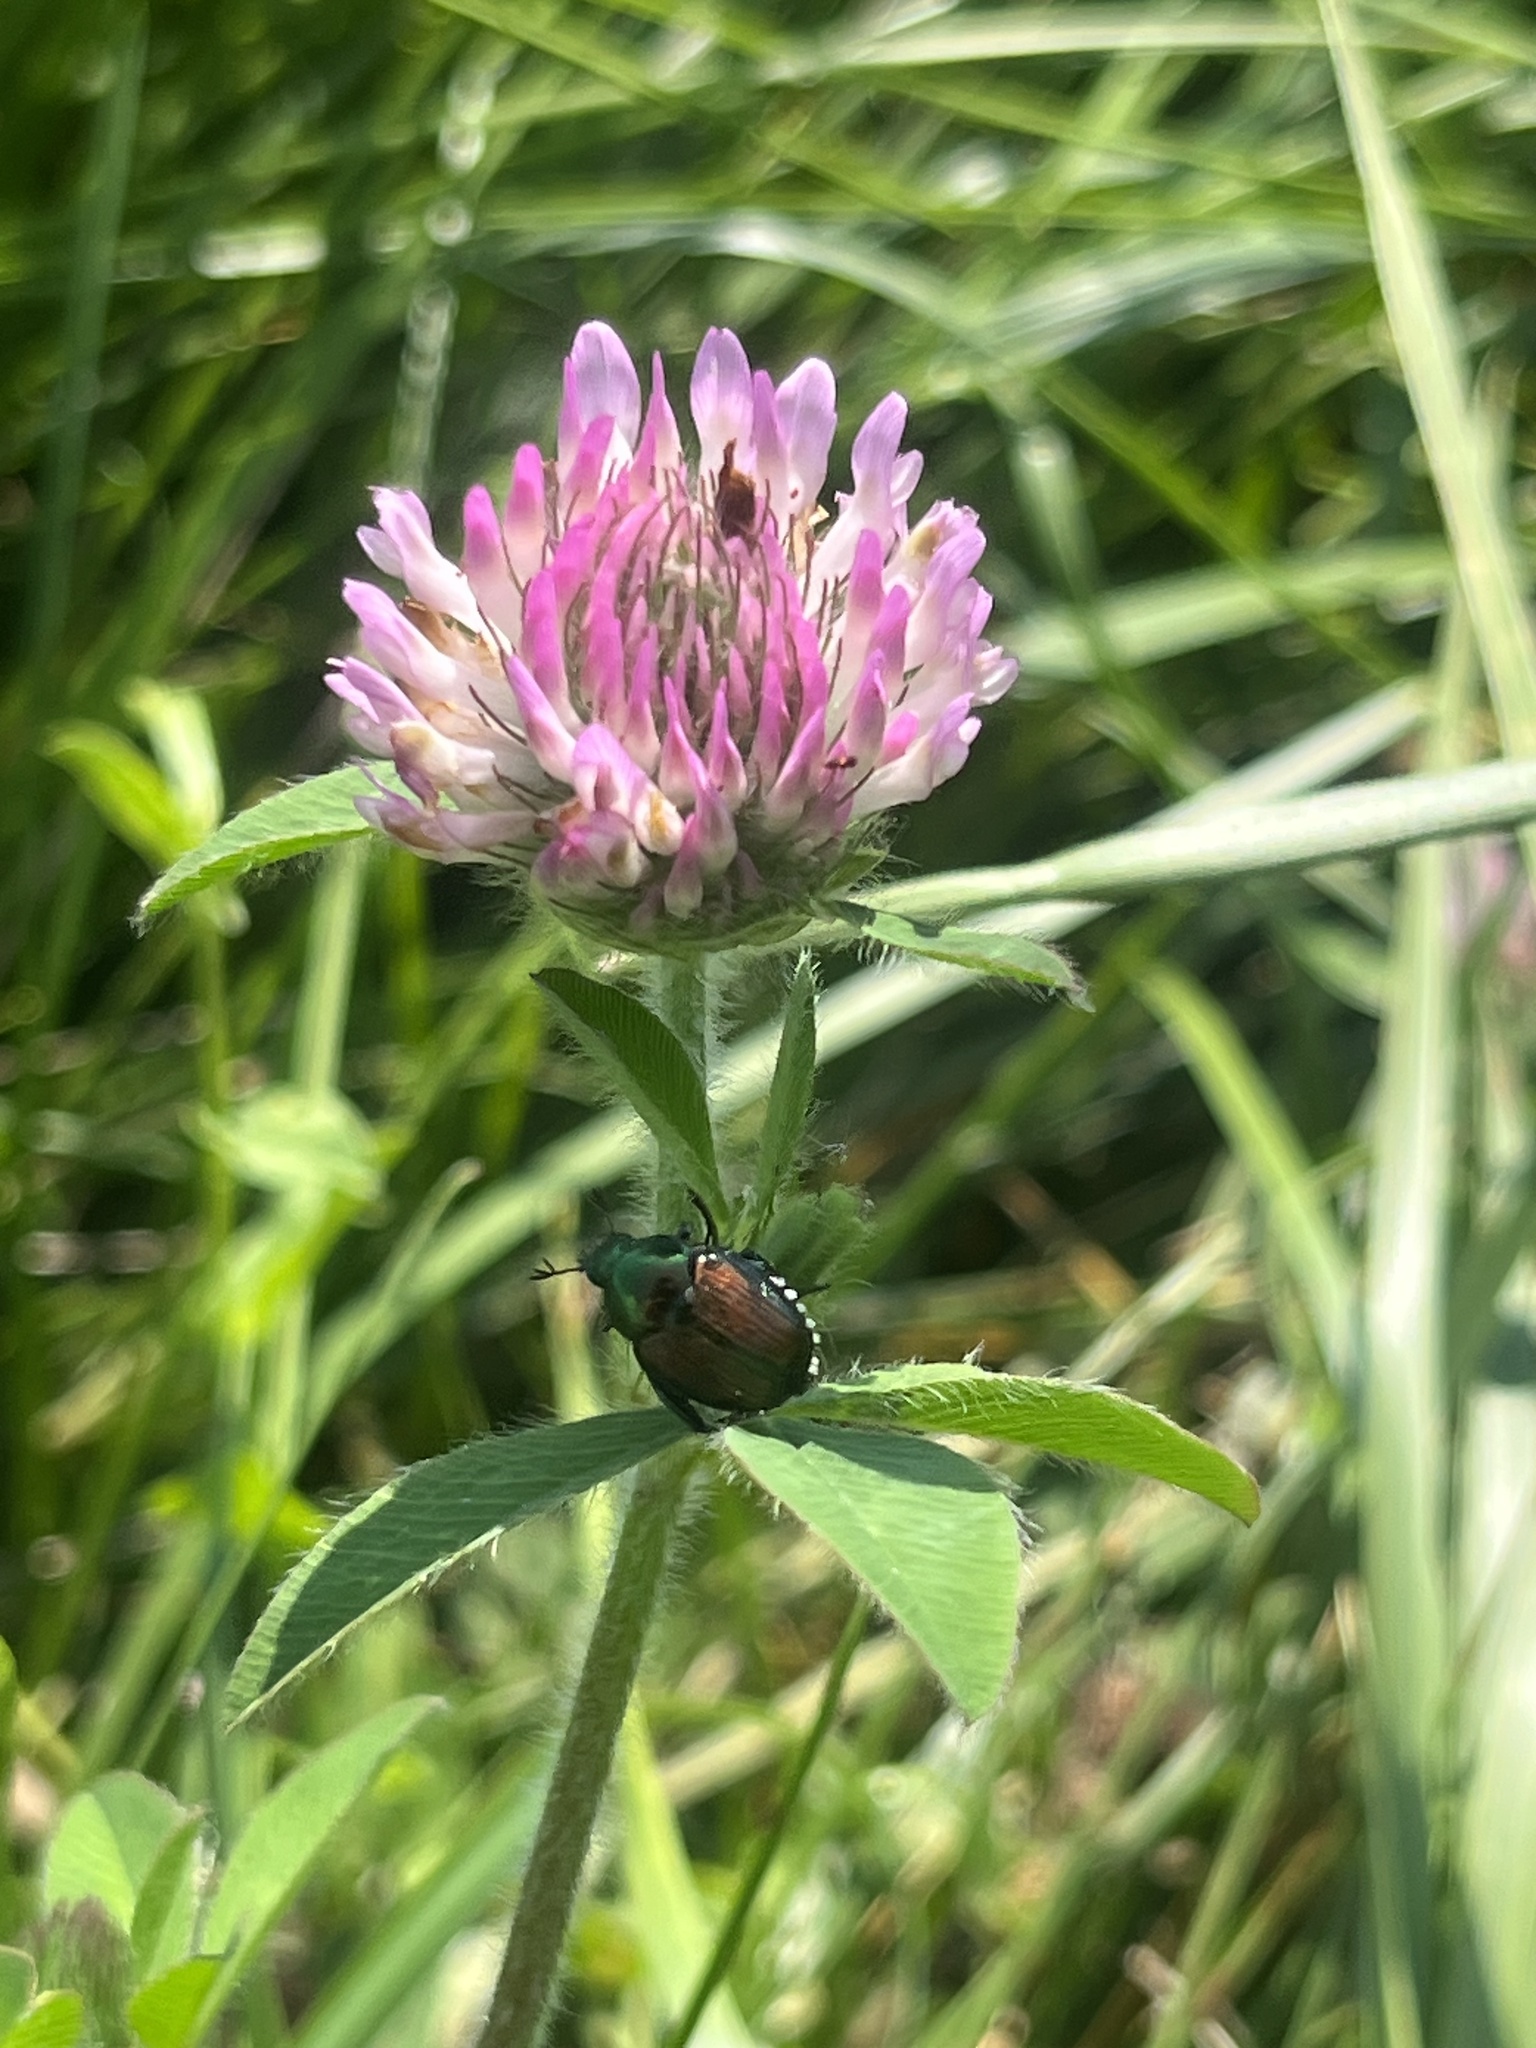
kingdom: Animalia
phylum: Arthropoda
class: Insecta
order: Coleoptera
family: Scarabaeidae
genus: Popillia
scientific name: Popillia japonica
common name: Japanese beetle
